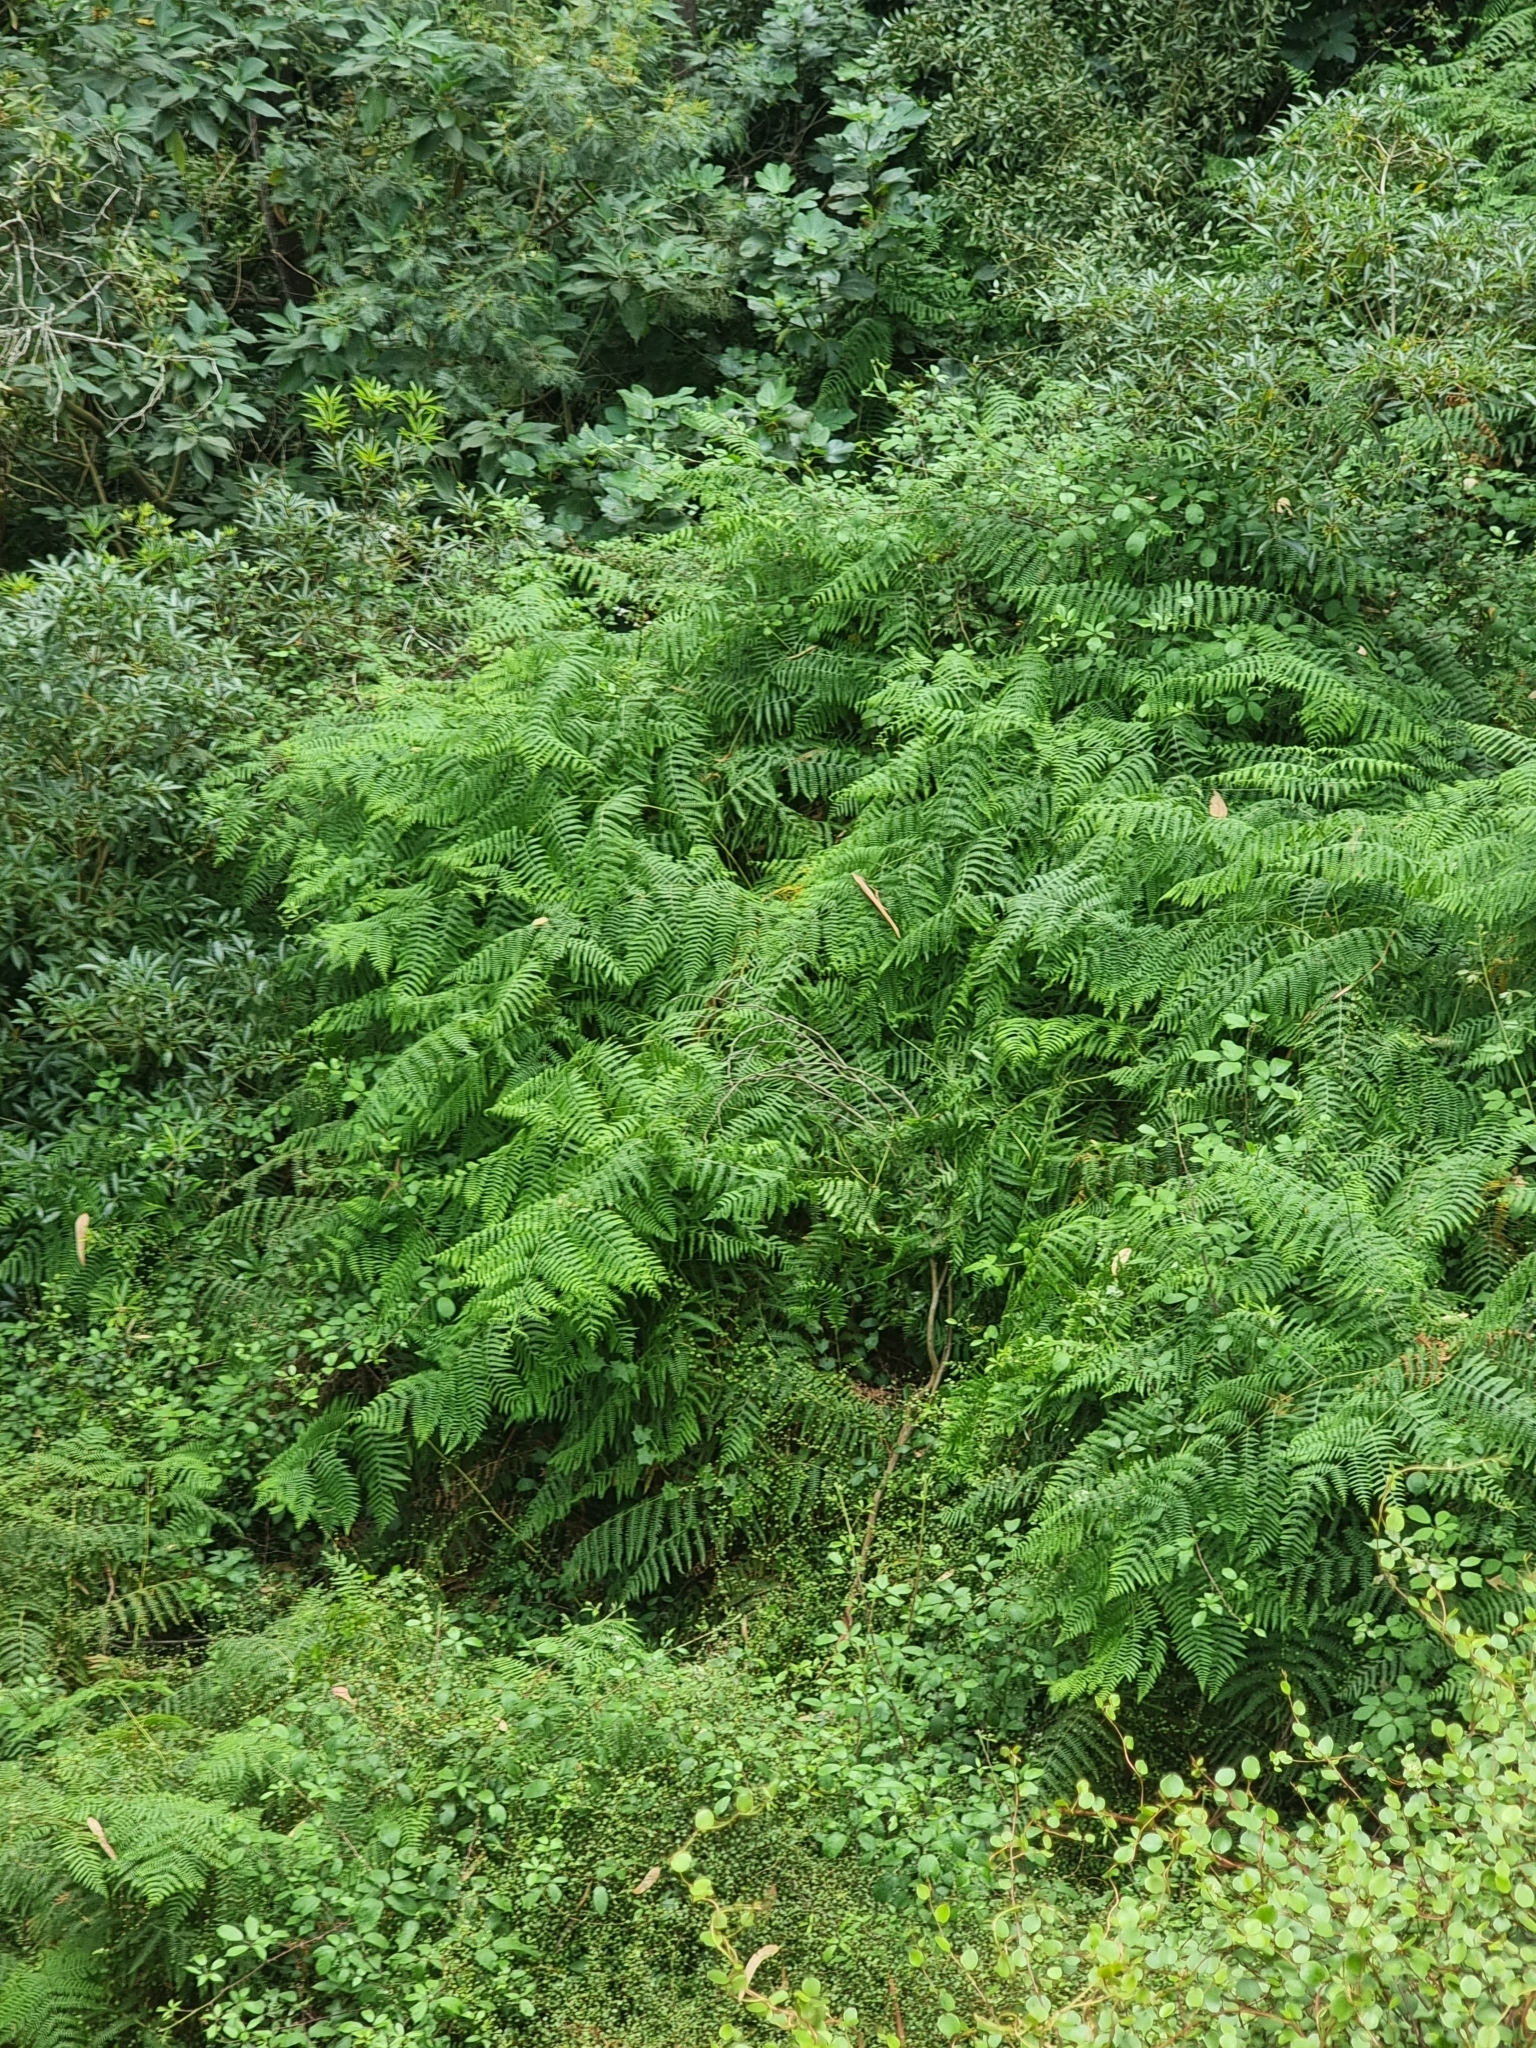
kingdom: Plantae
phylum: Tracheophyta
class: Polypodiopsida
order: Polypodiales
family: Dennstaedtiaceae
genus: Pteridium
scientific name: Pteridium aquilinum
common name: Bracken
